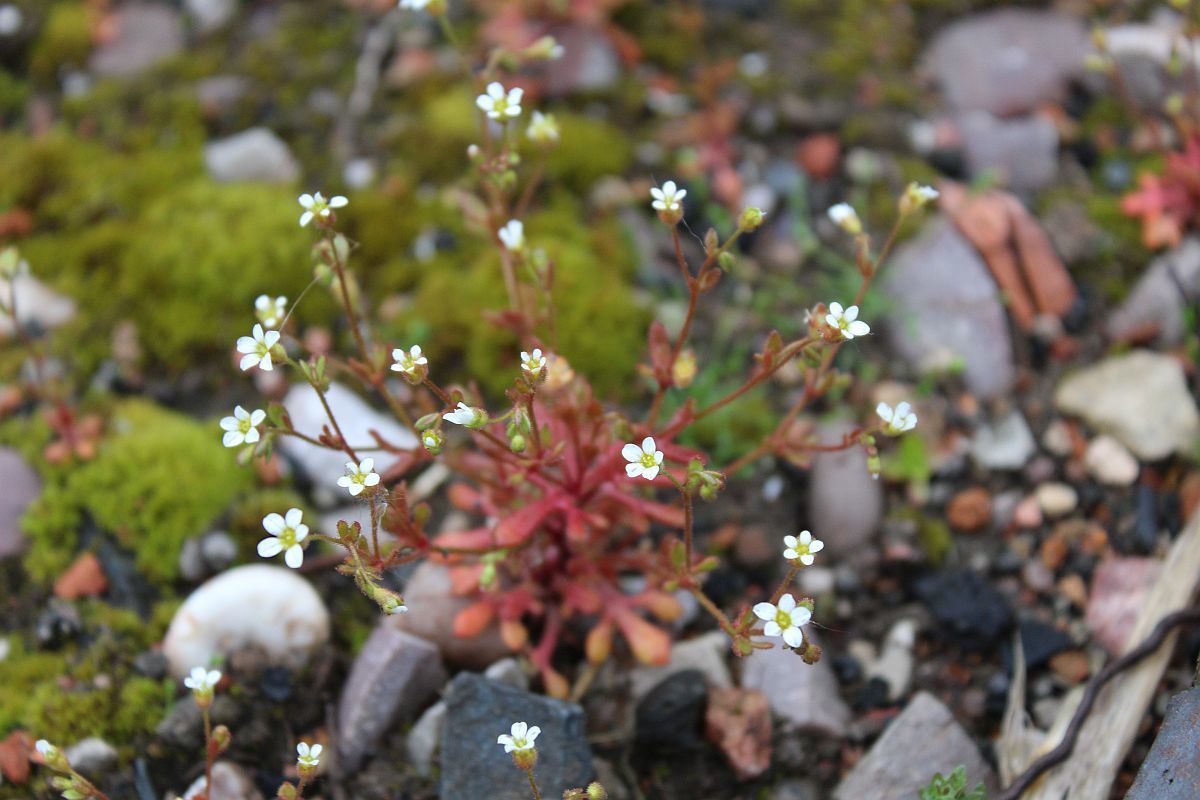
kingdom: Plantae
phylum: Tracheophyta
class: Magnoliopsida
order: Saxifragales
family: Saxifragaceae
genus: Saxifraga
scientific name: Saxifraga tridactylites
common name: Rue-leaved saxifrage
